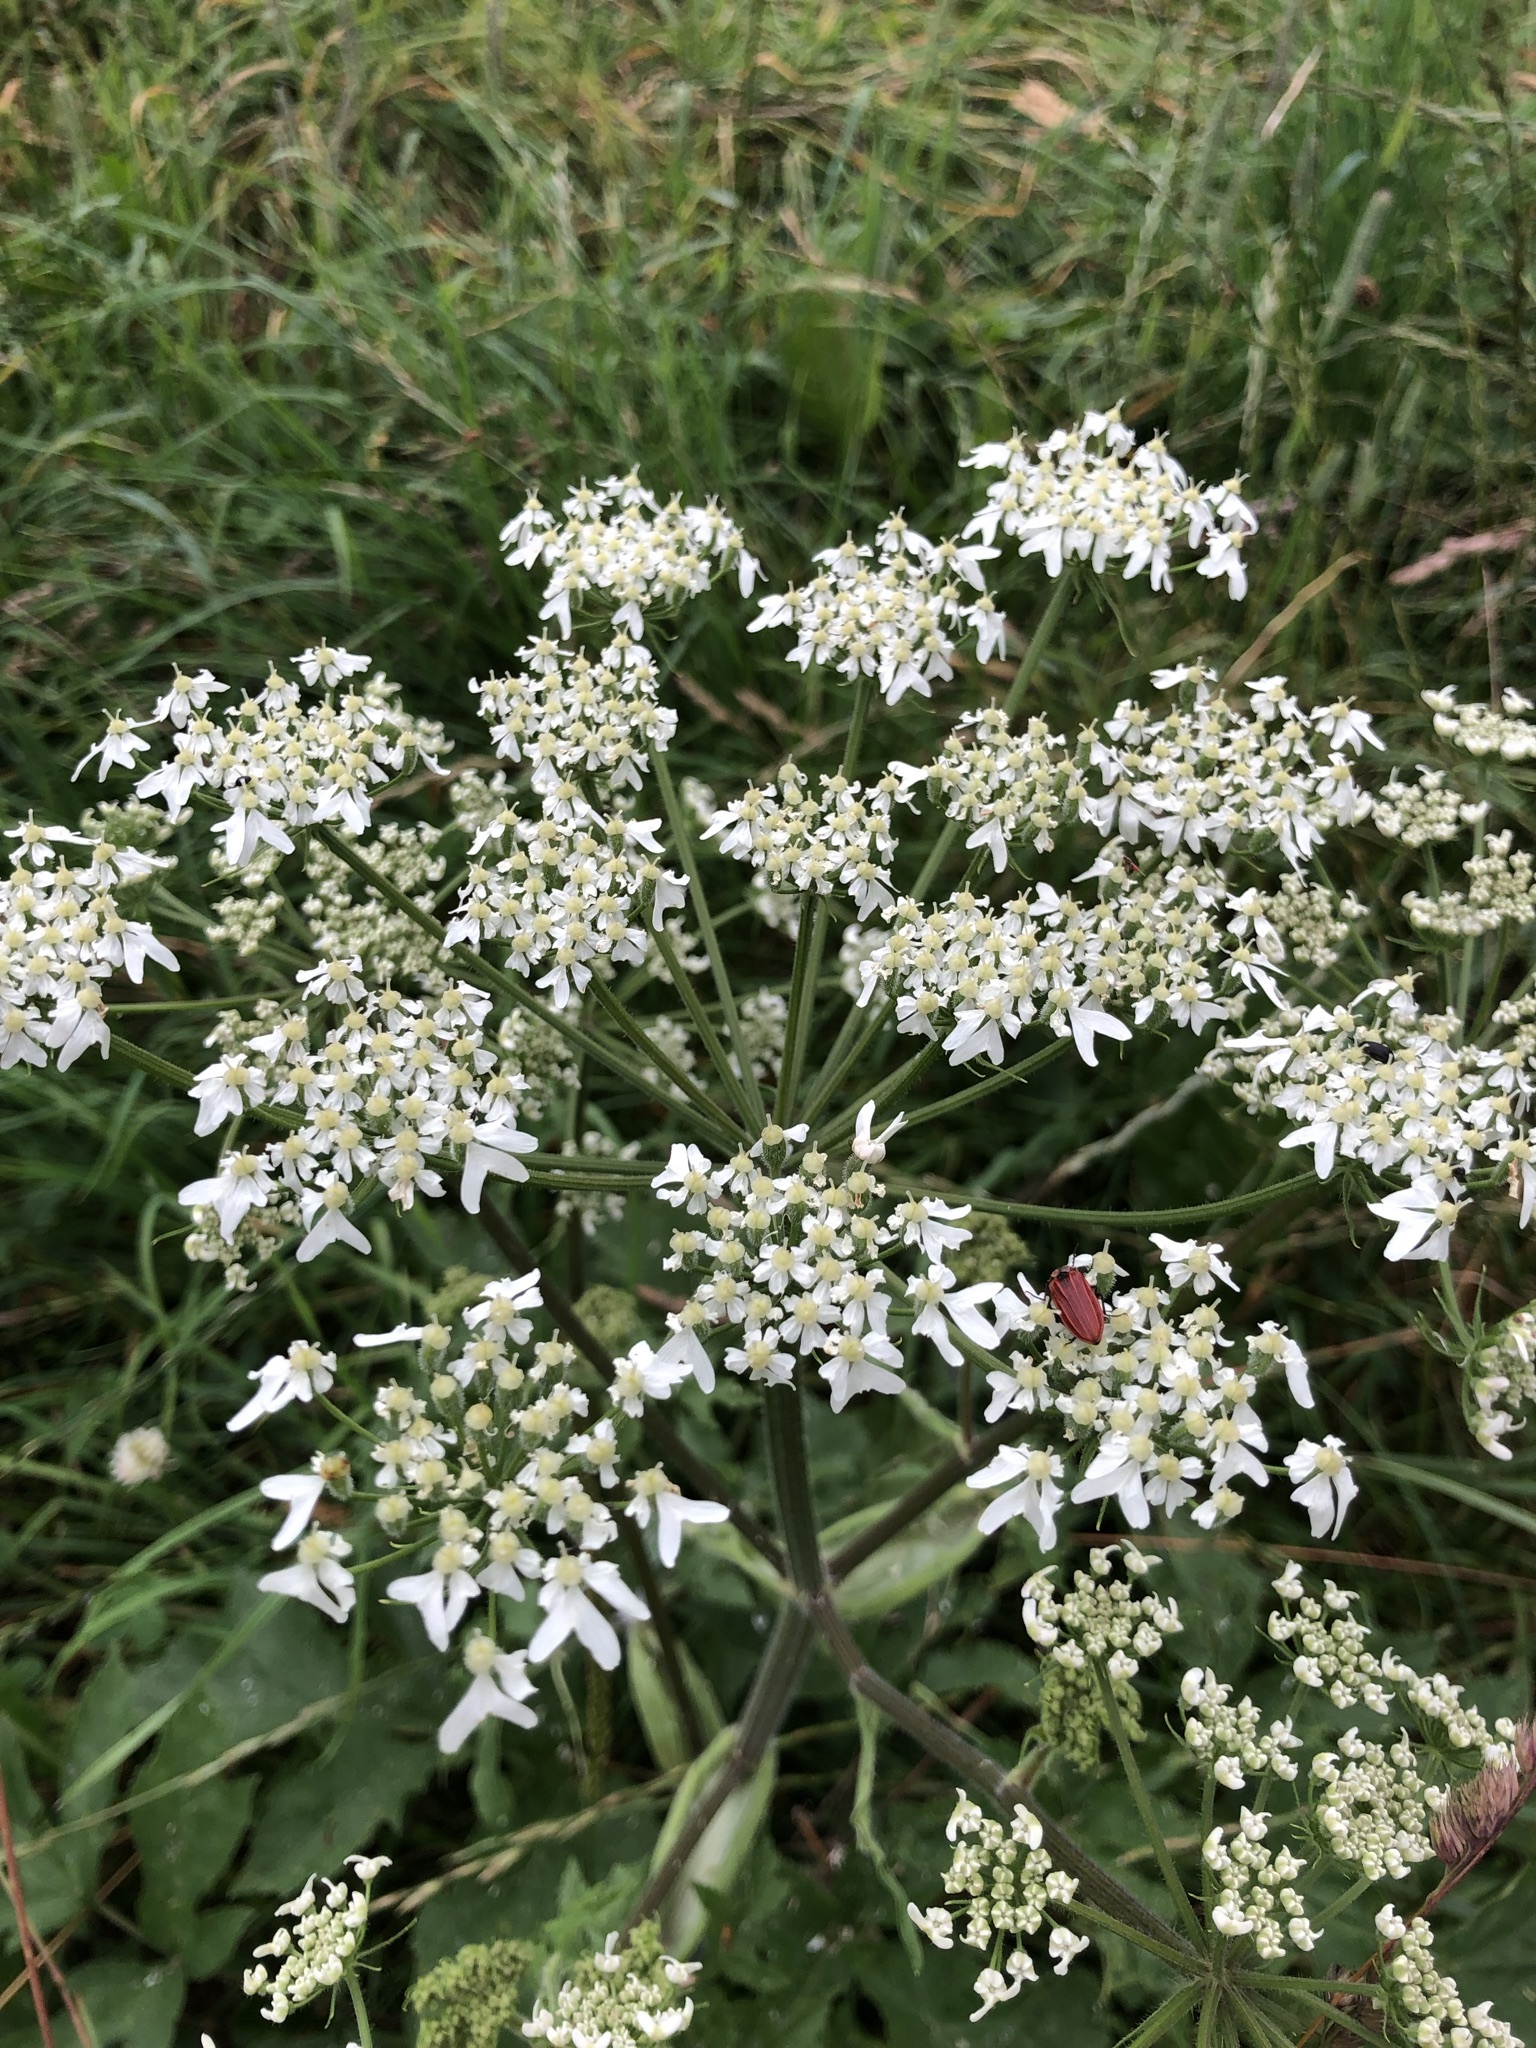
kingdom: Plantae
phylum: Tracheophyta
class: Magnoliopsida
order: Apiales
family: Apiaceae
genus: Heracleum
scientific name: Heracleum sphondylium
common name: Hogweed
